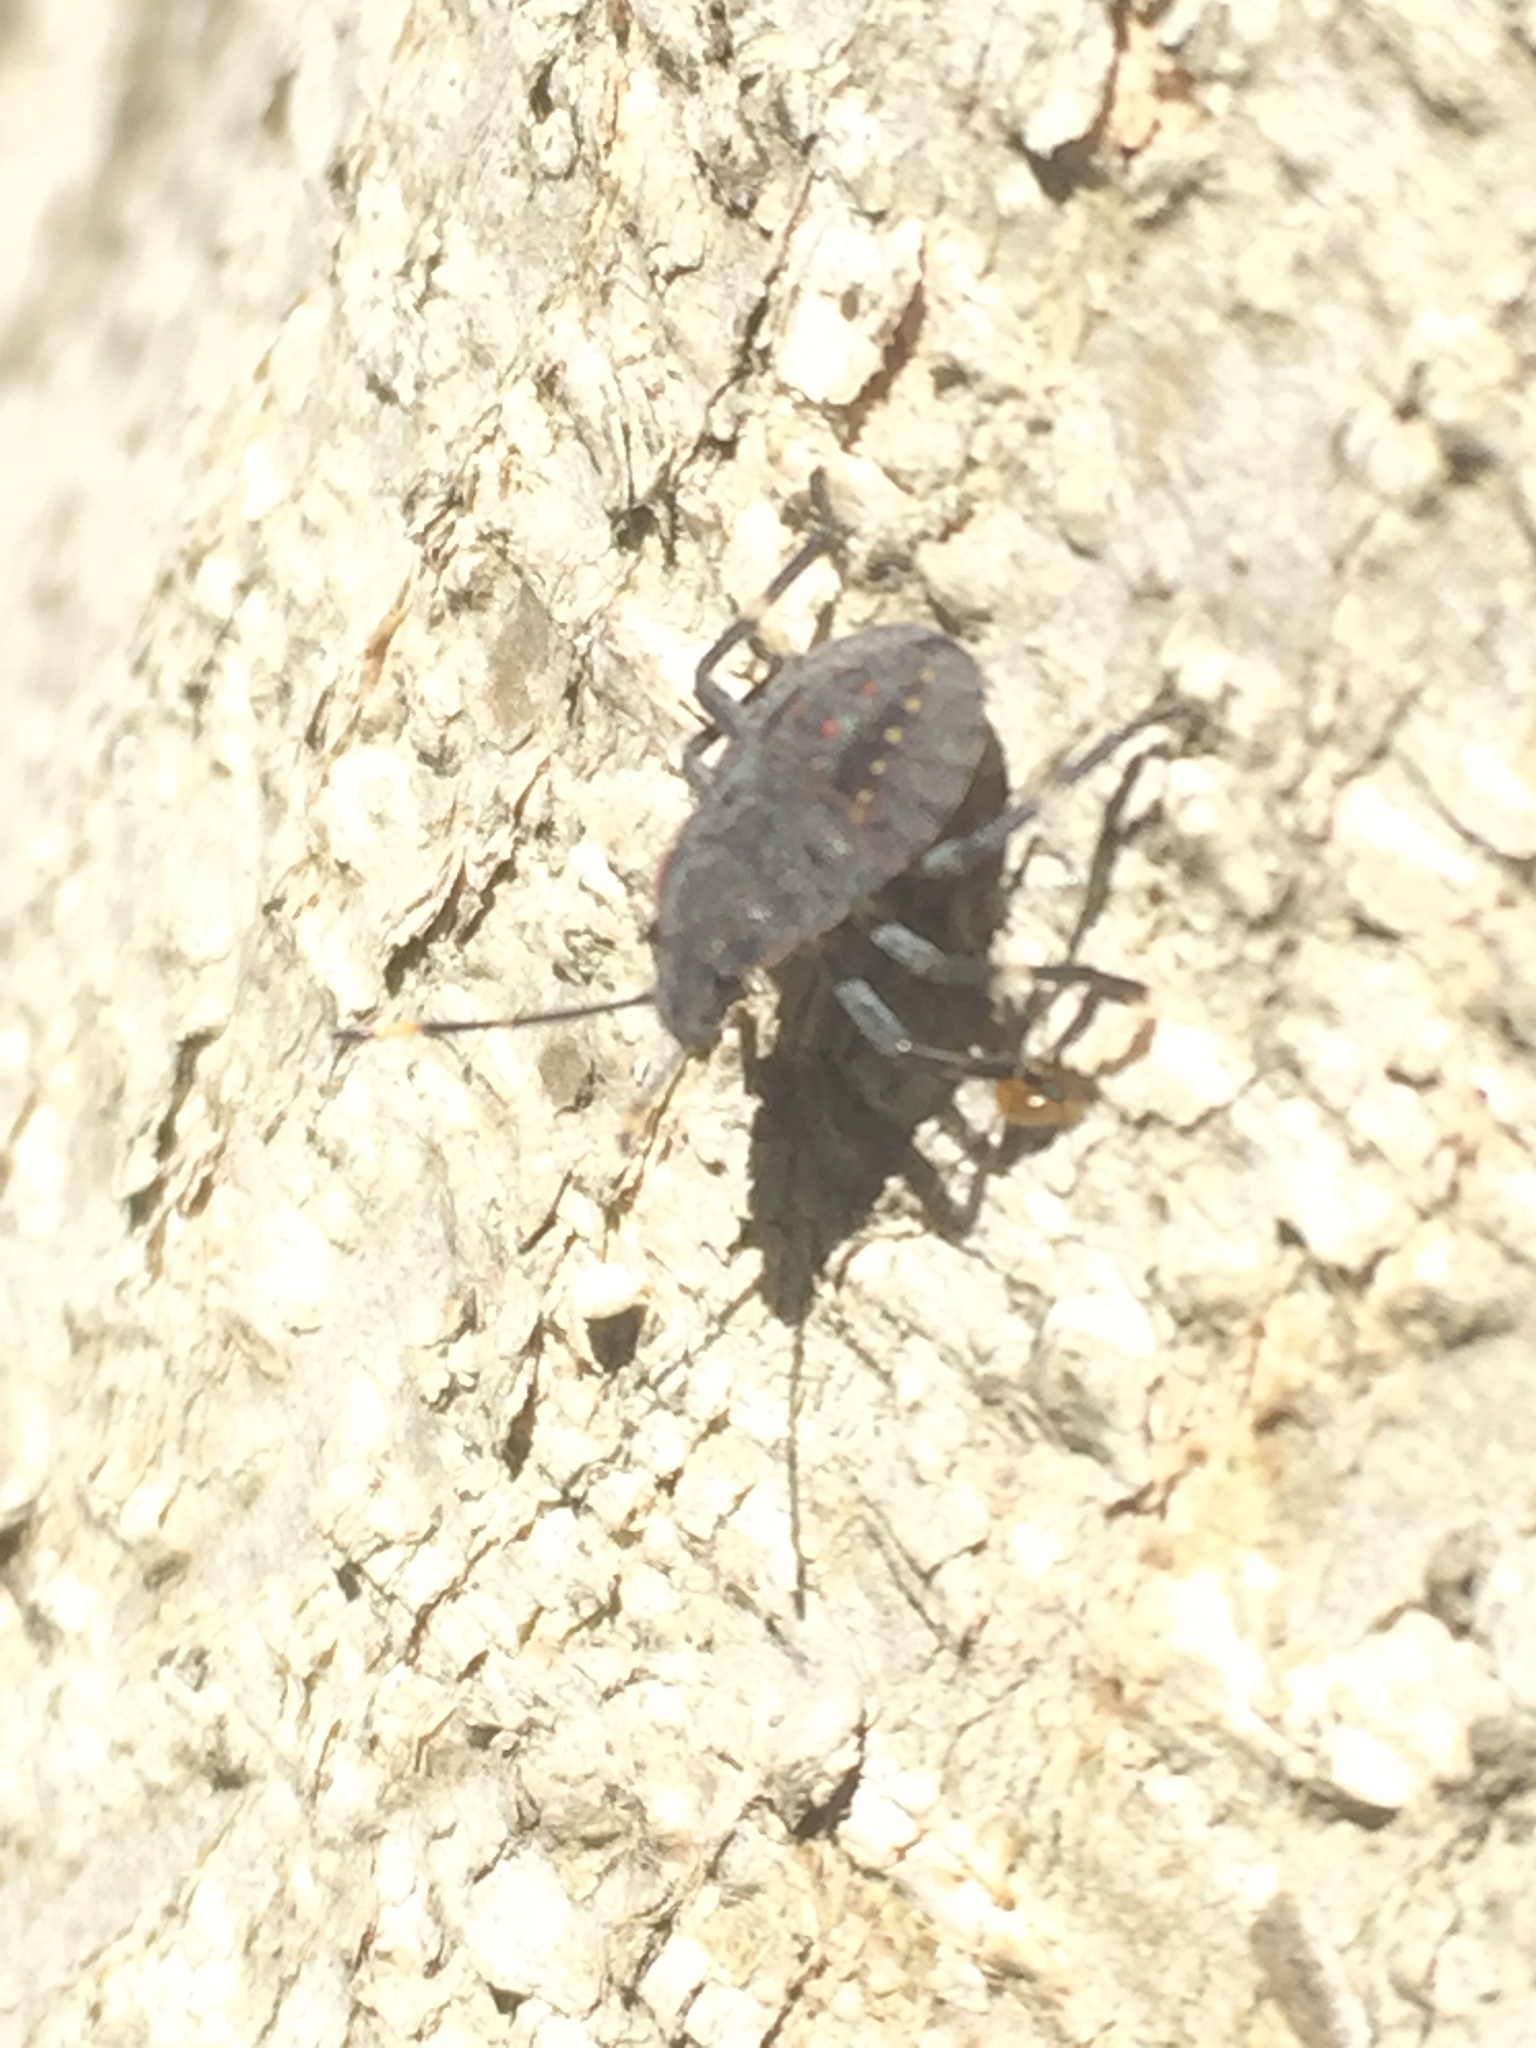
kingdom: Animalia
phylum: Arthropoda
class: Insecta
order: Hemiptera
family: Pentatomidae
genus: Coenomorpha
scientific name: Coenomorpha nervosa
